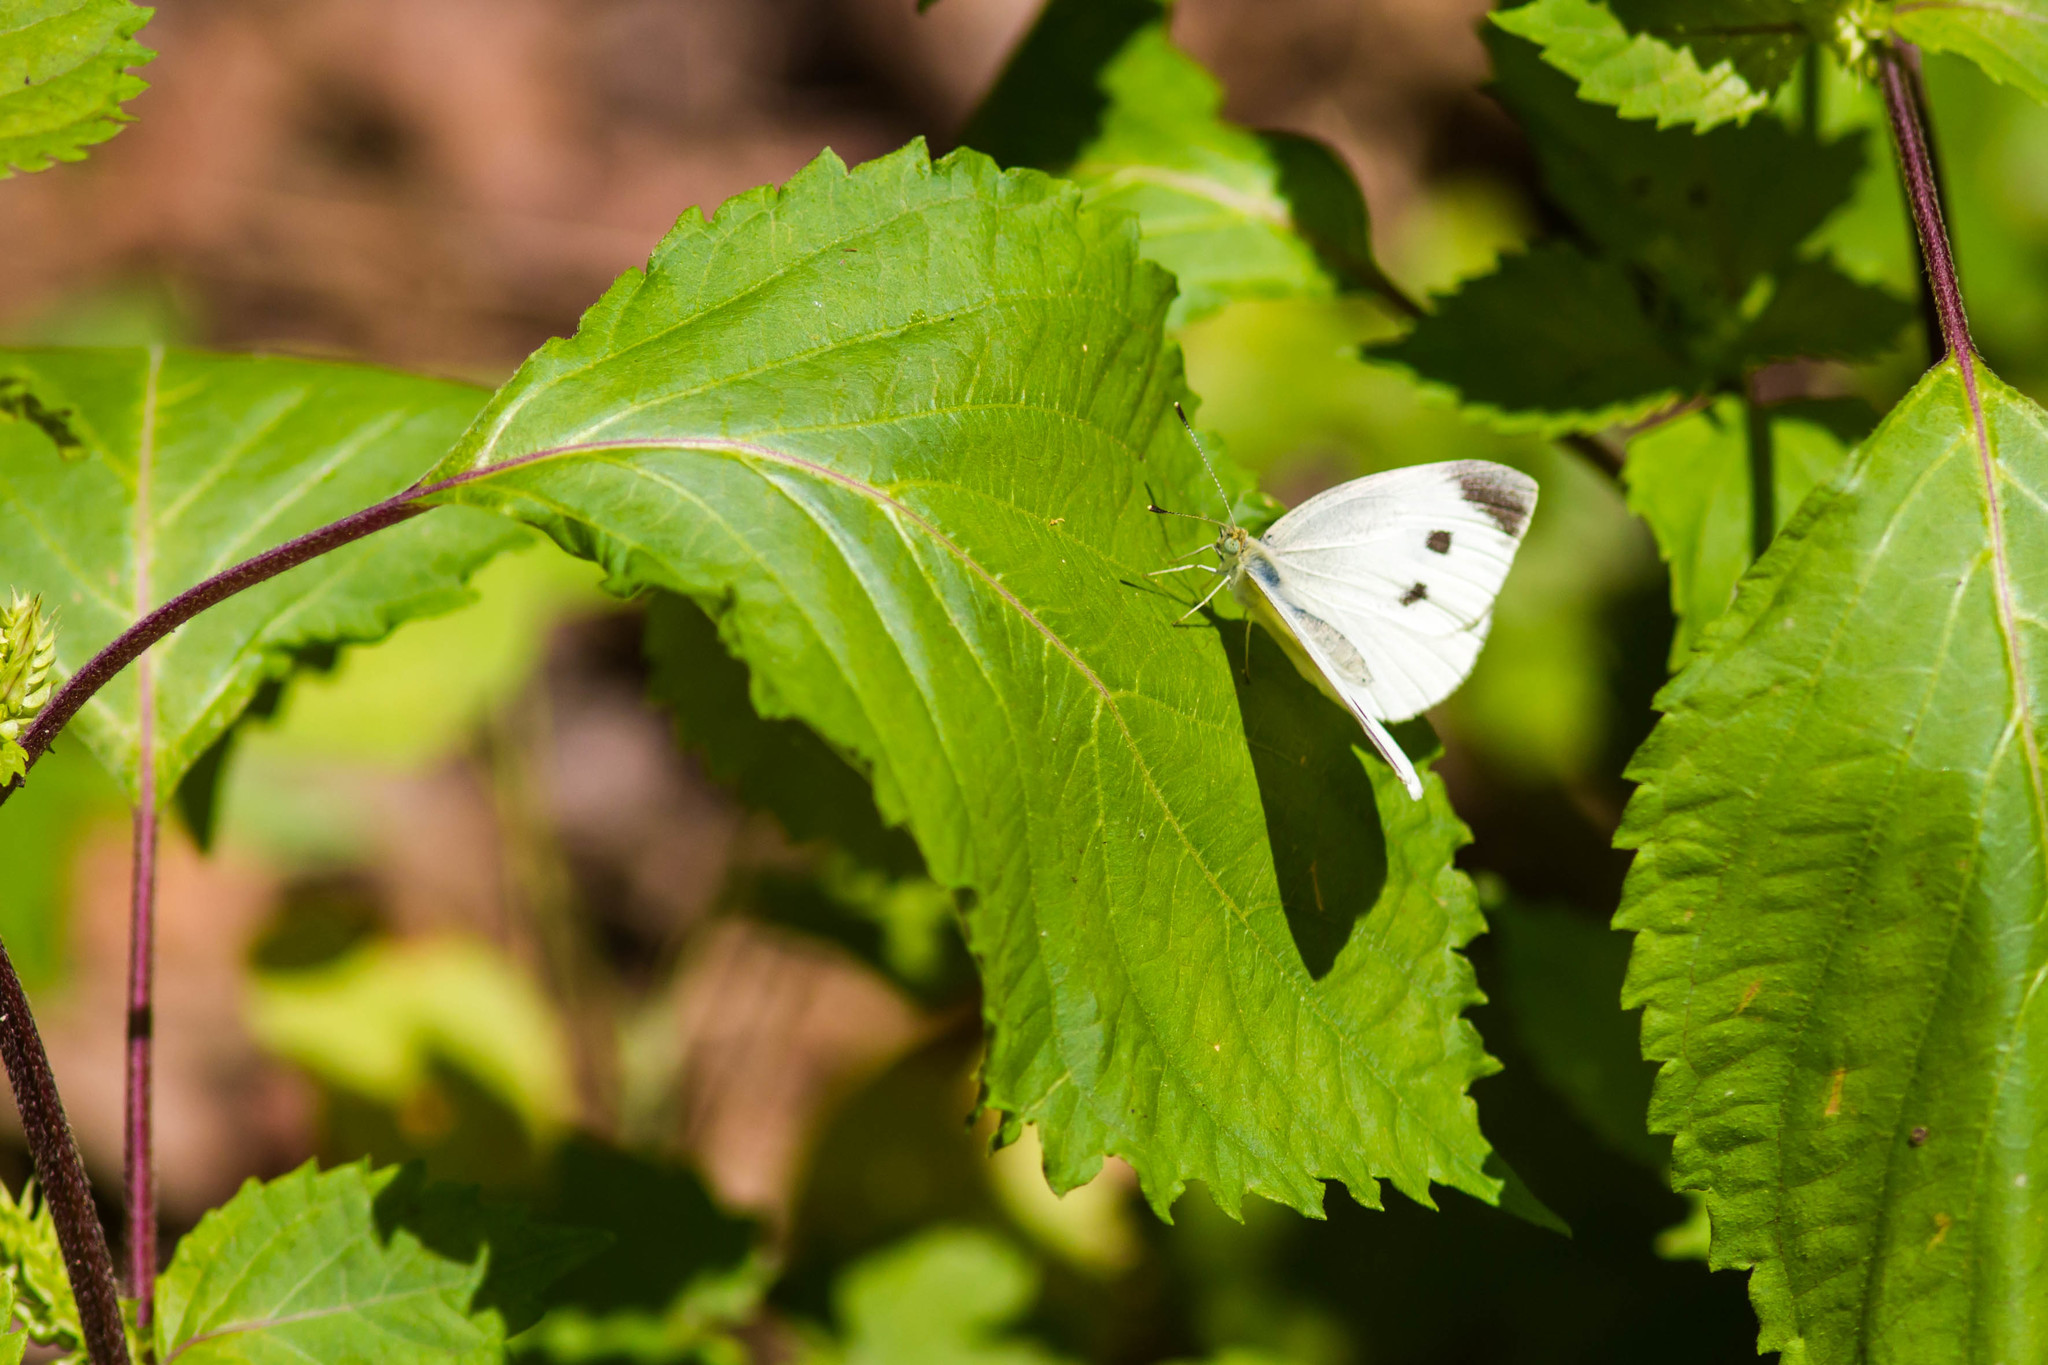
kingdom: Animalia
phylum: Arthropoda
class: Insecta
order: Lepidoptera
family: Pieridae
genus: Pieris
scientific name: Pieris rapae
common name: Small white
